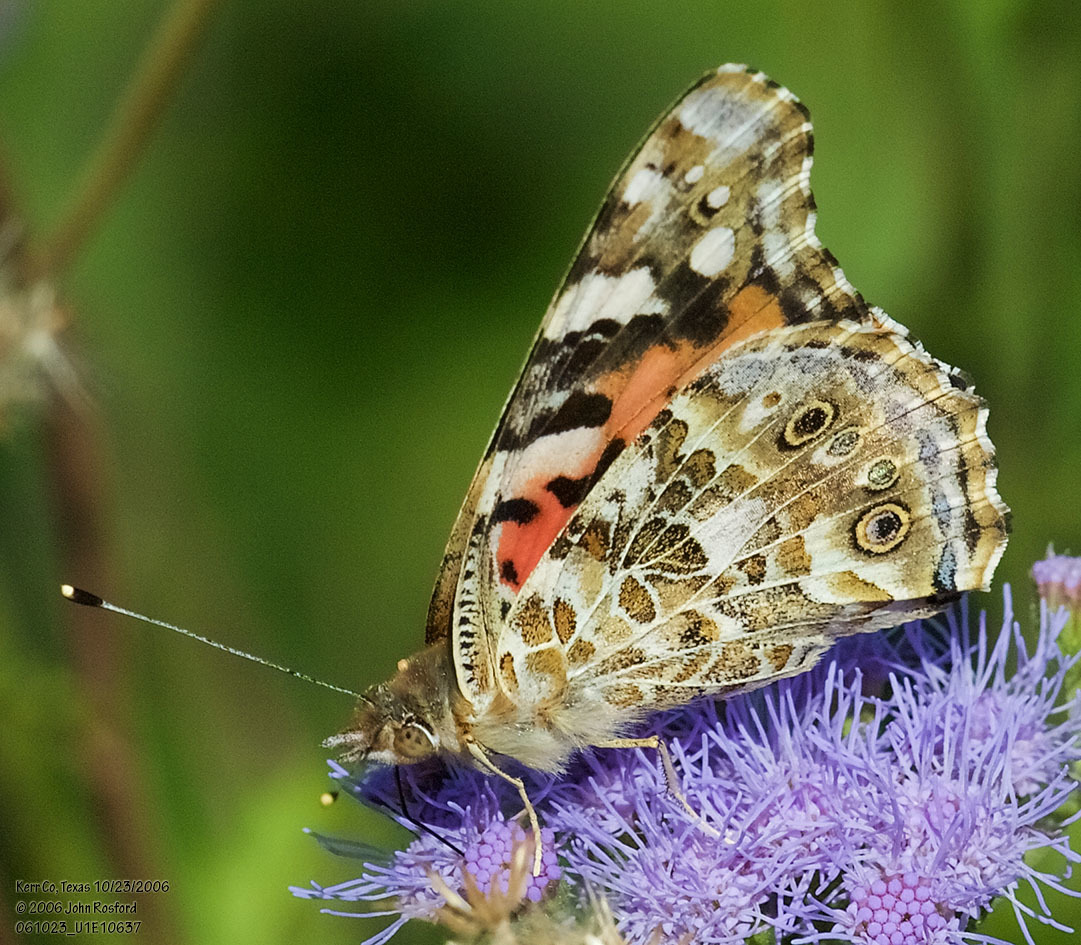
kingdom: Animalia
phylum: Arthropoda
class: Insecta
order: Lepidoptera
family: Nymphalidae
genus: Vanessa
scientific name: Vanessa cardui
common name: Painted lady
